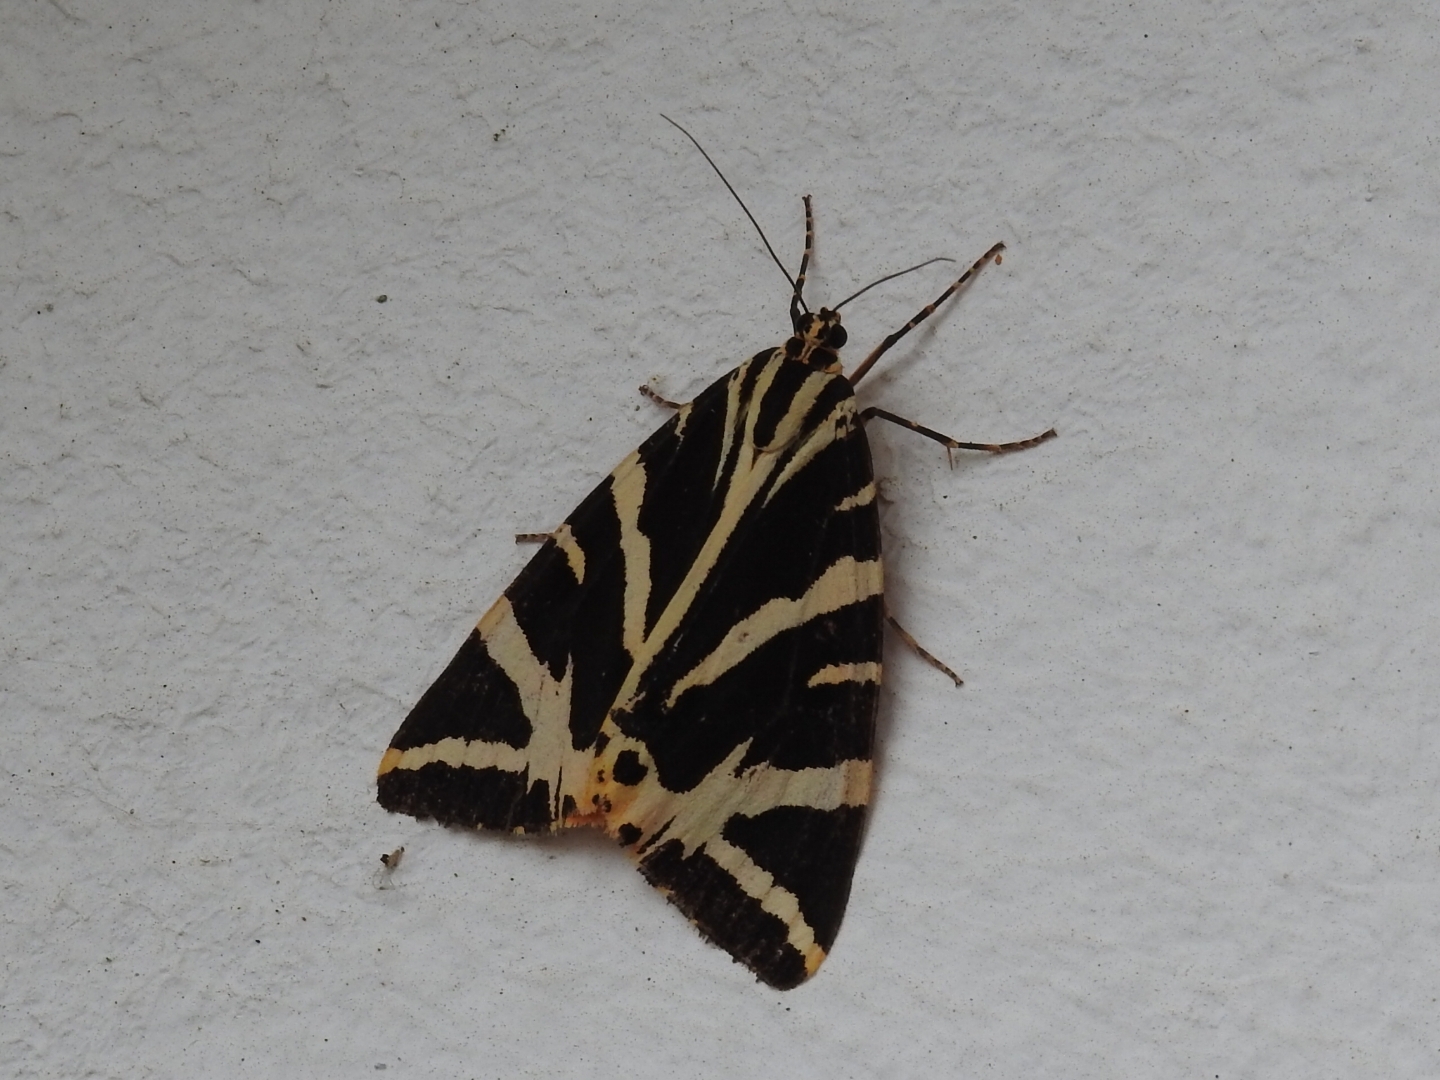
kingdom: Animalia
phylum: Arthropoda
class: Insecta
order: Lepidoptera
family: Erebidae
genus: Euplagia
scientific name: Euplagia quadripunctaria
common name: Jersey tiger
